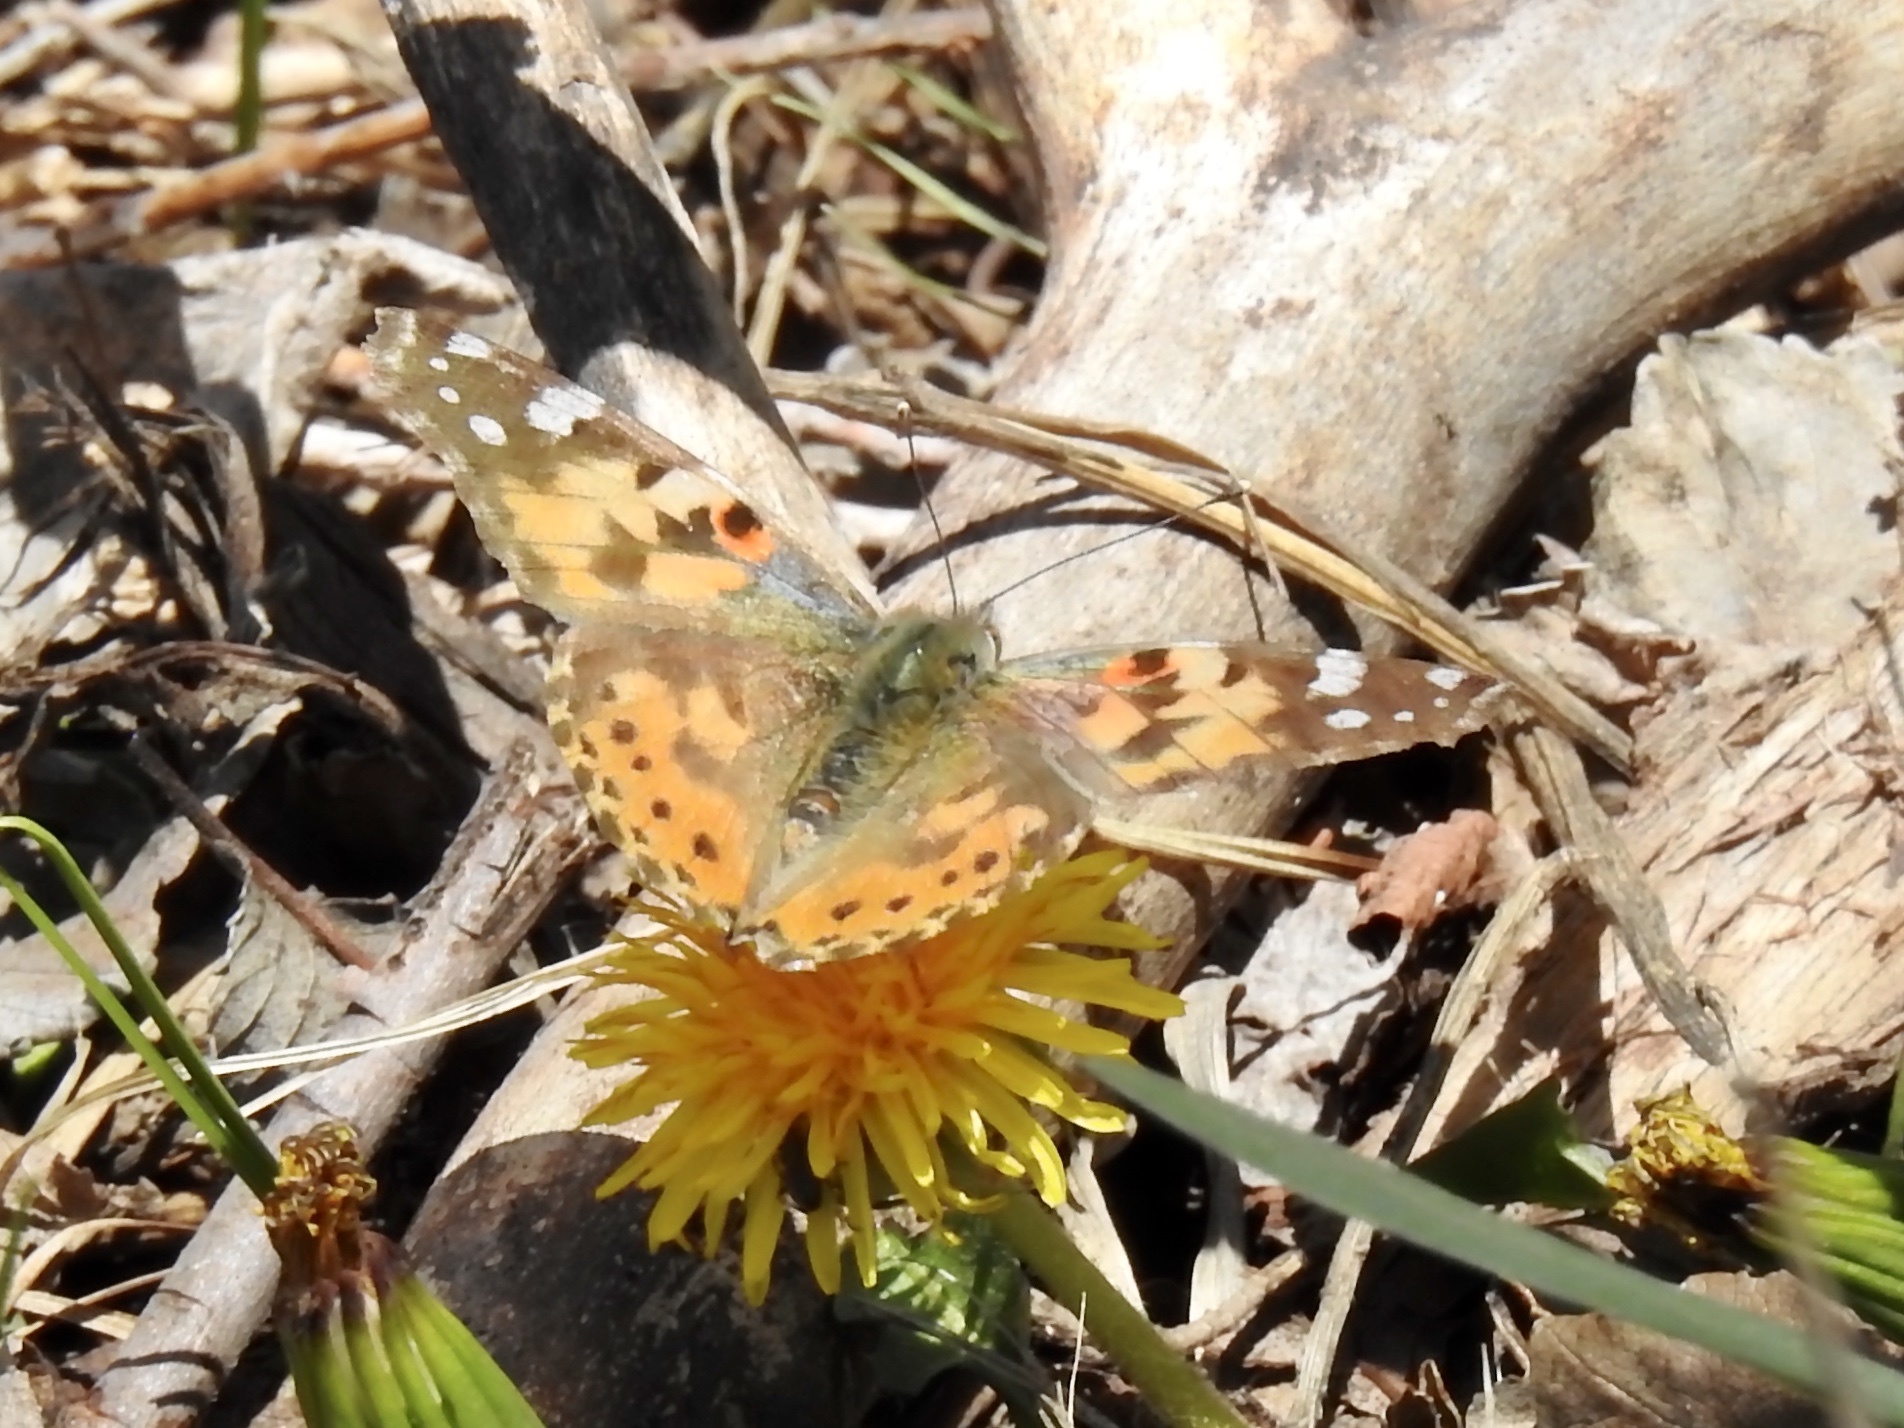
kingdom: Animalia
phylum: Arthropoda
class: Insecta
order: Lepidoptera
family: Nymphalidae
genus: Vanessa
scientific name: Vanessa cardui
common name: Painted lady
